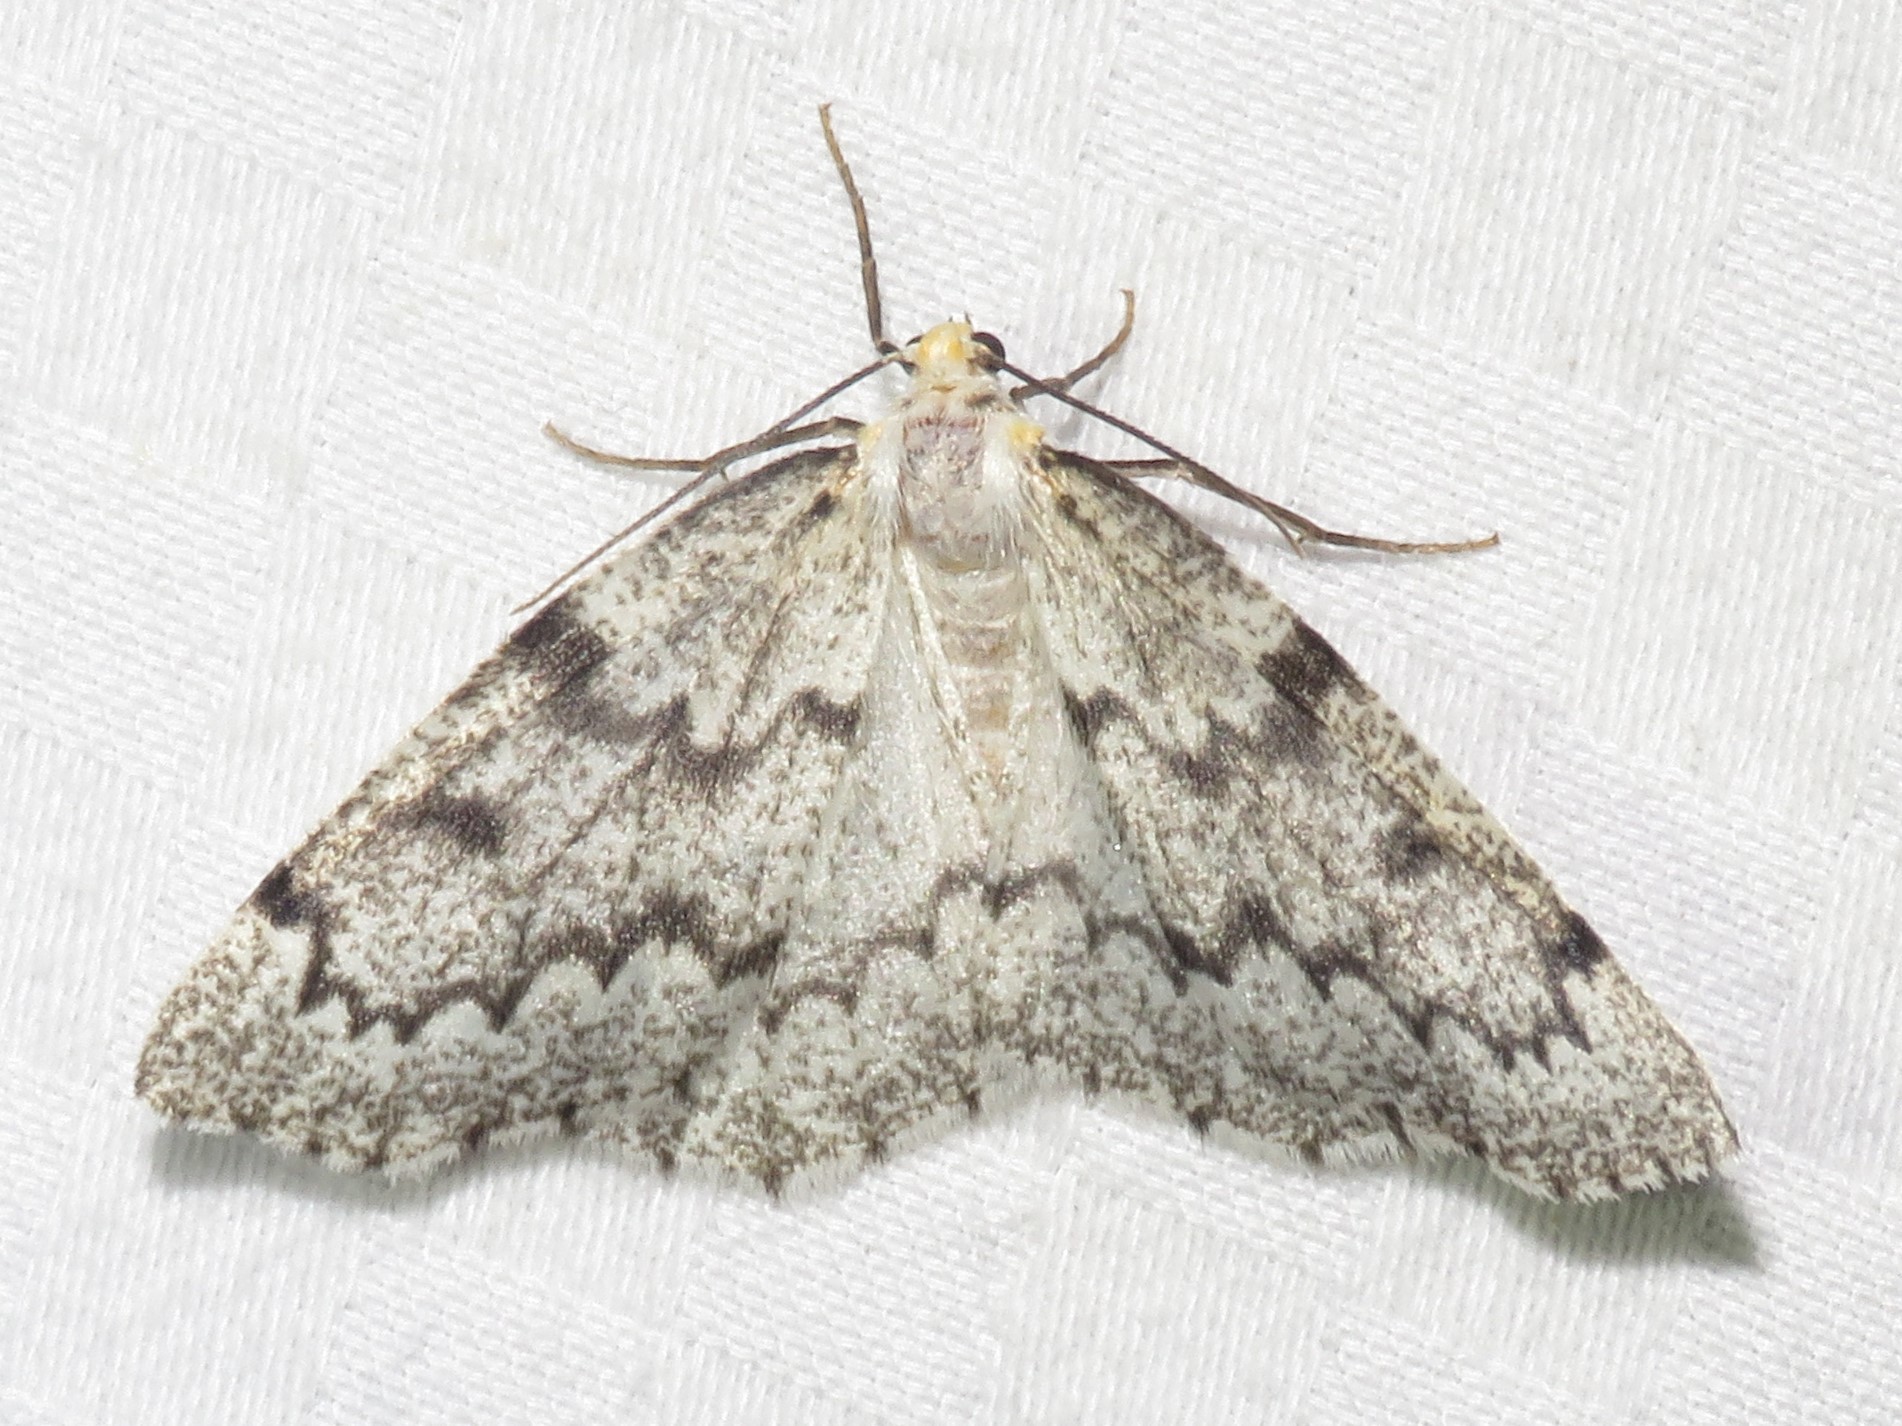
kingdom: Animalia
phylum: Arthropoda
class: Insecta
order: Lepidoptera
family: Geometridae
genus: Nepytia
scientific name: Nepytia canosaria
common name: False hemlock looper
